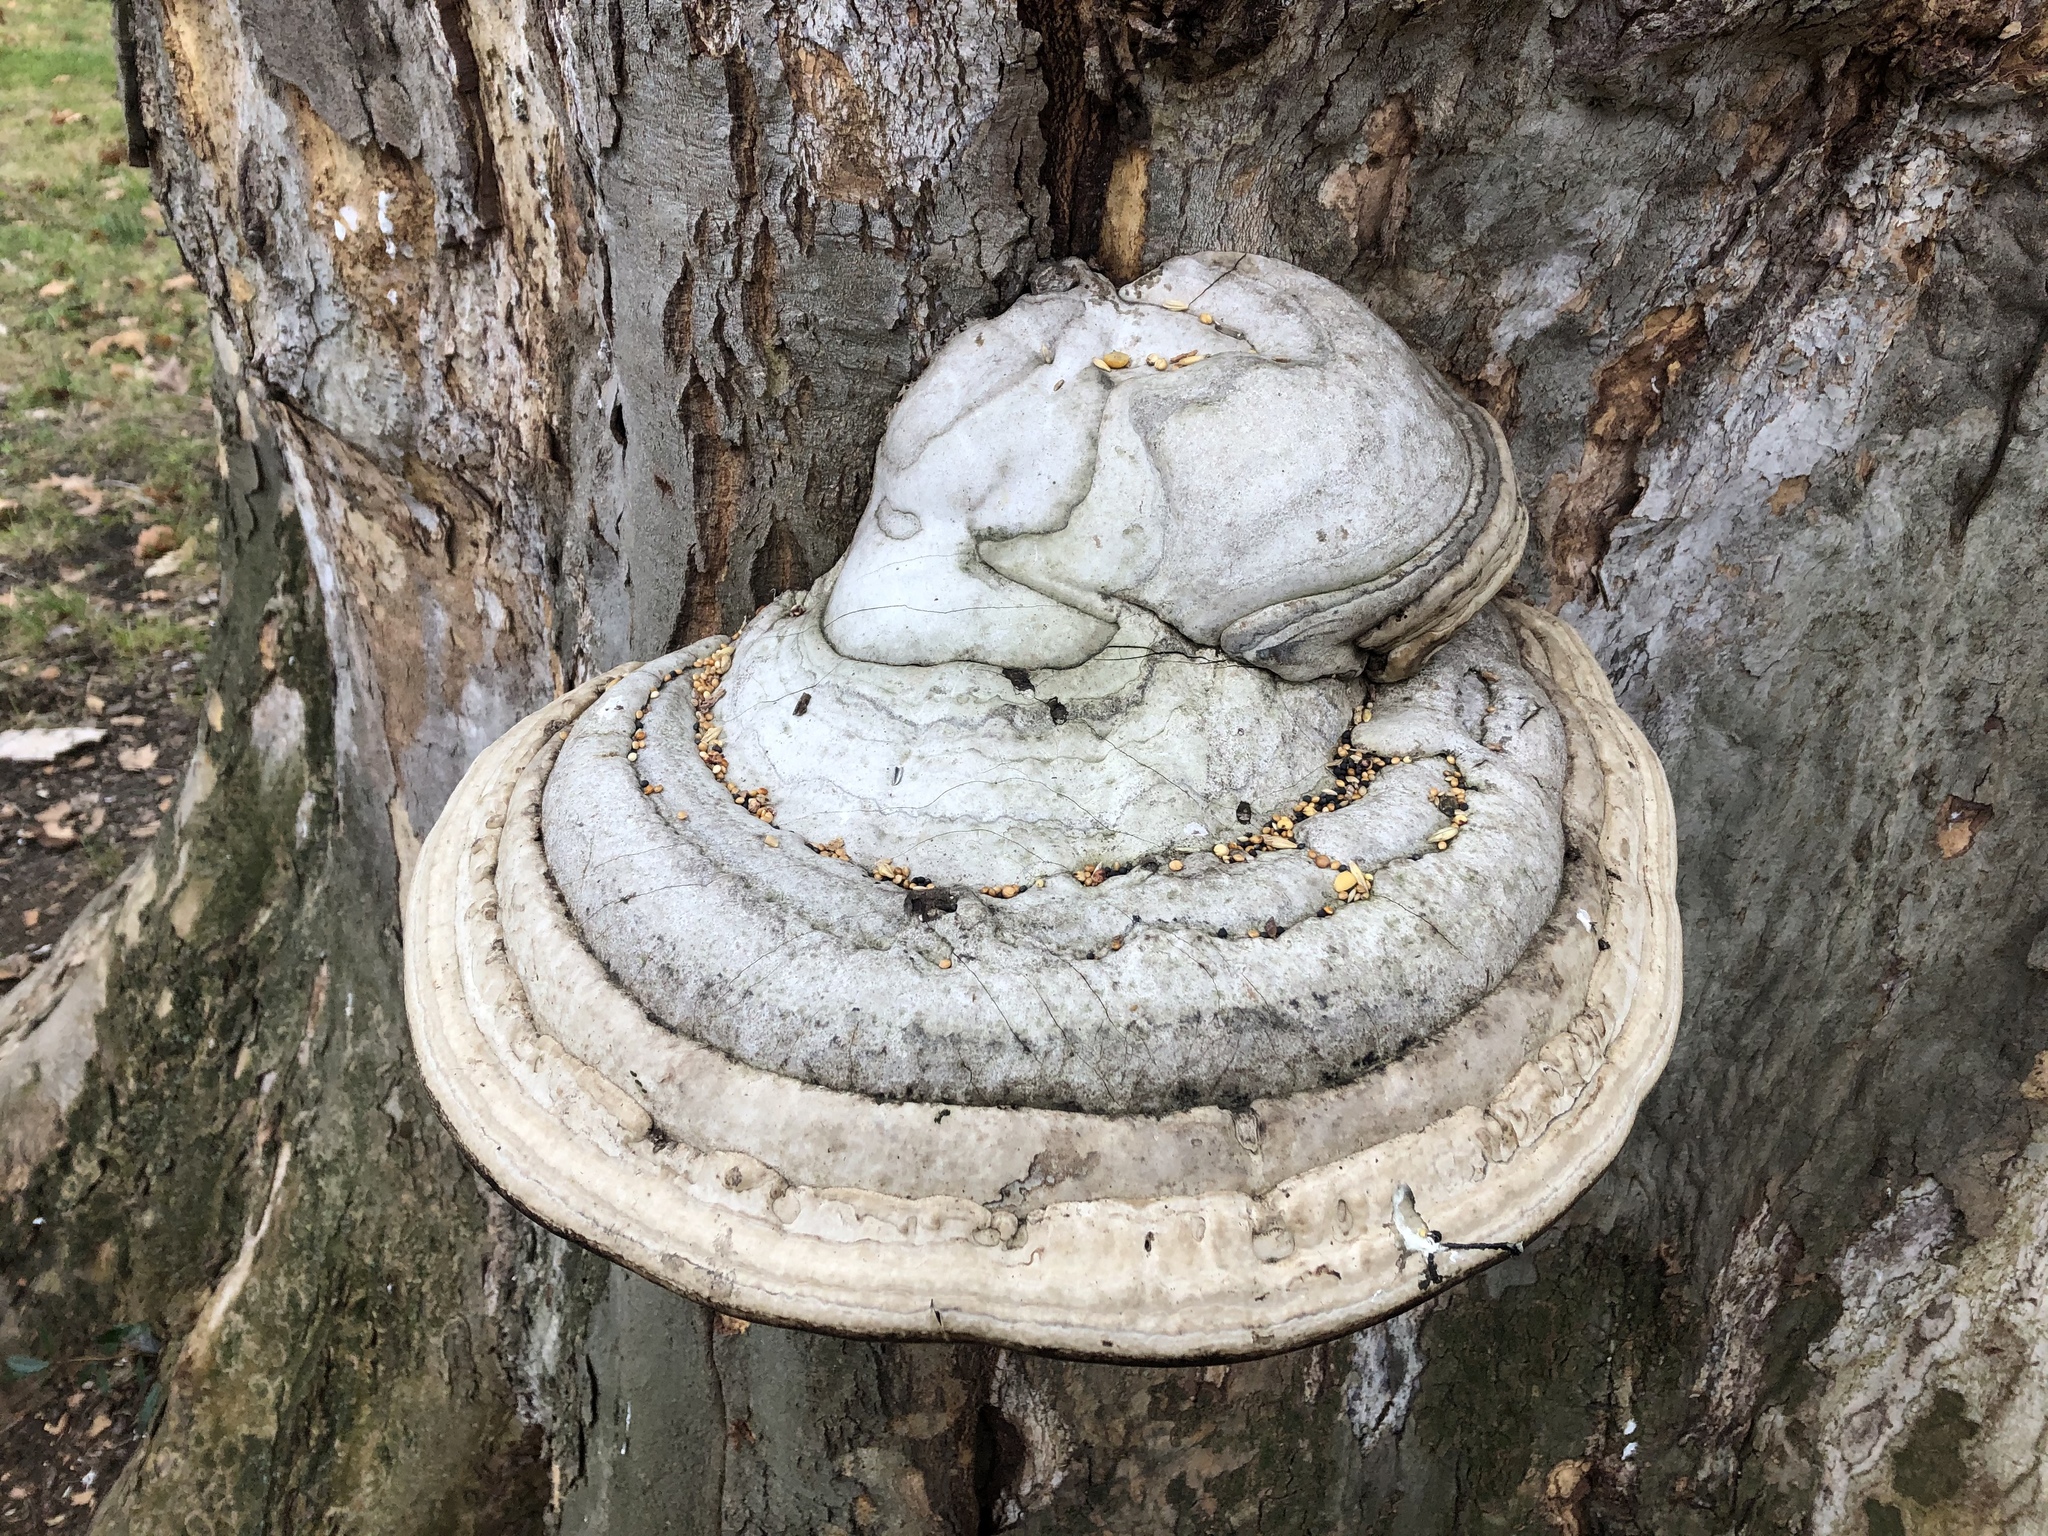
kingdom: Fungi
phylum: Basidiomycota
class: Agaricomycetes
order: Polyporales
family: Polyporaceae
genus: Fomes
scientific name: Fomes fomentarius
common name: Hoof fungus
